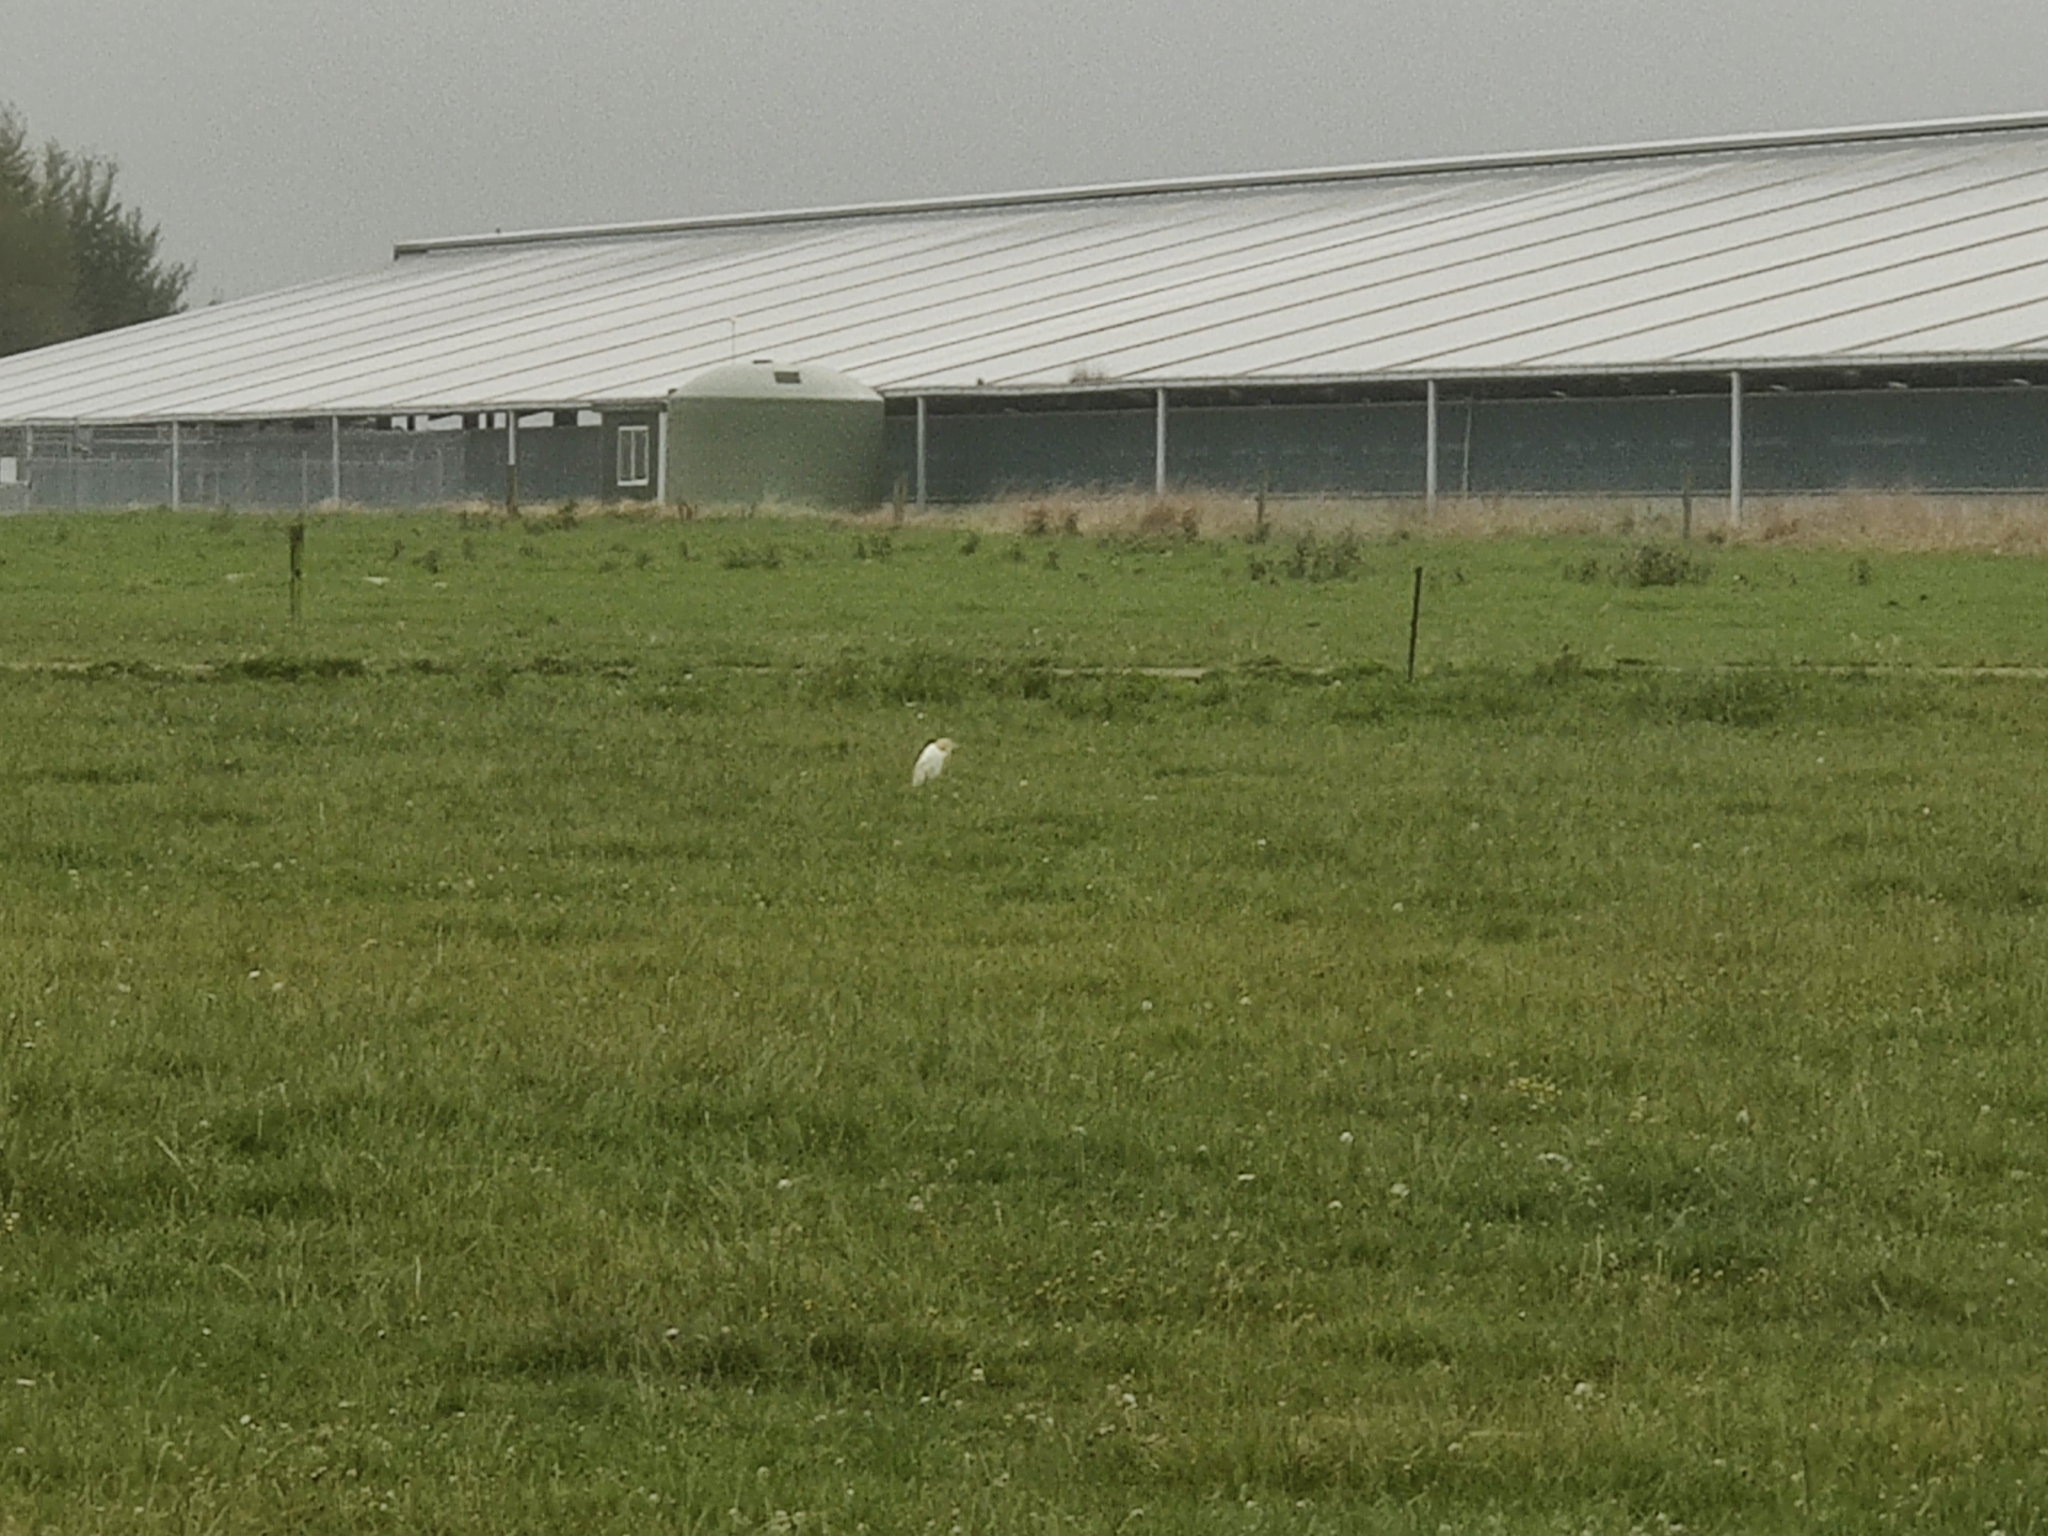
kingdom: Animalia
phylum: Chordata
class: Aves
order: Pelecaniformes
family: Ardeidae
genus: Bubulcus
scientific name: Bubulcus coromandus
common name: Eastern cattle egret
